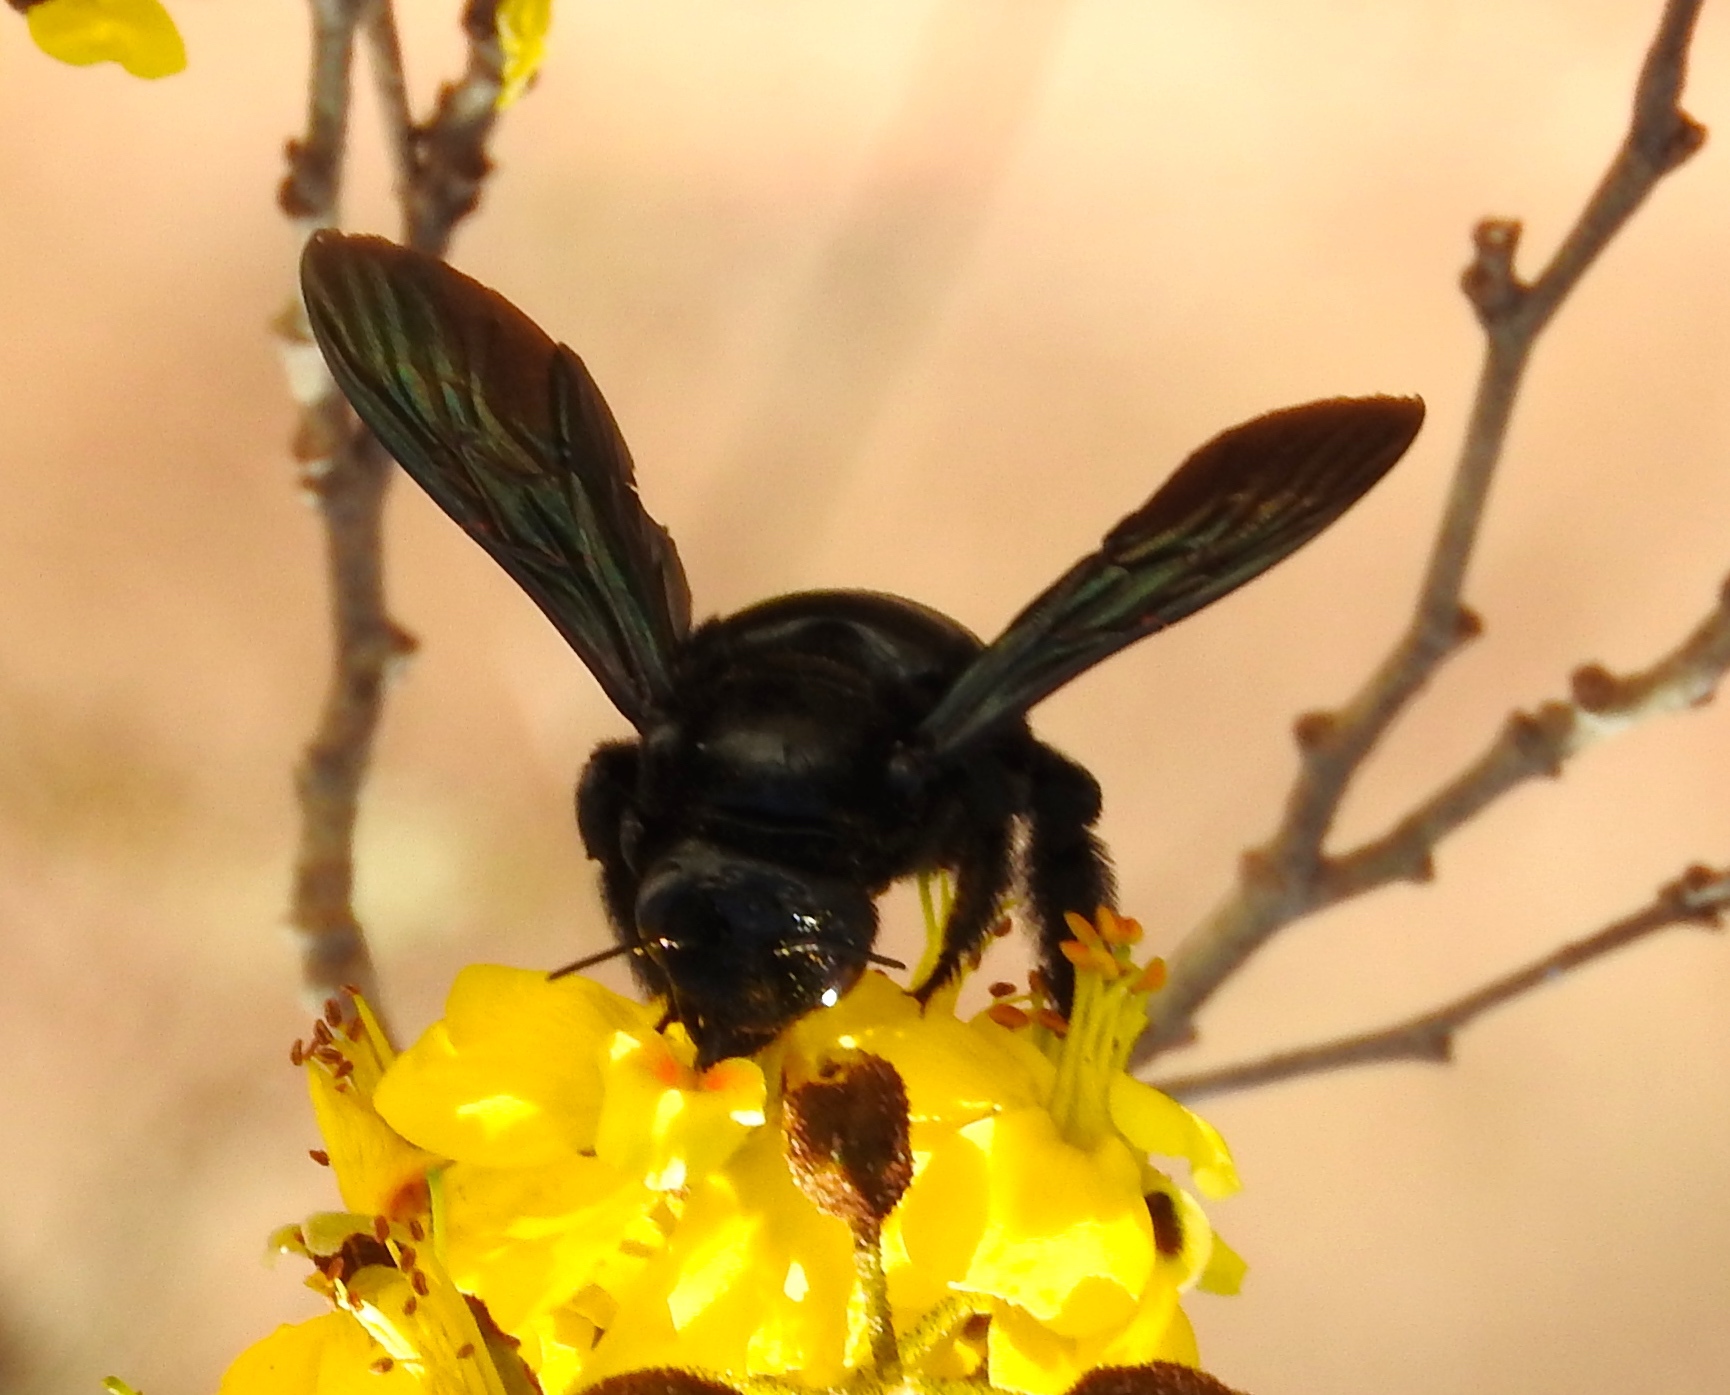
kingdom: Animalia
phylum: Arthropoda
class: Insecta
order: Hymenoptera
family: Apidae
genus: Xylocopa
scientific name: Xylocopa fimbriata
